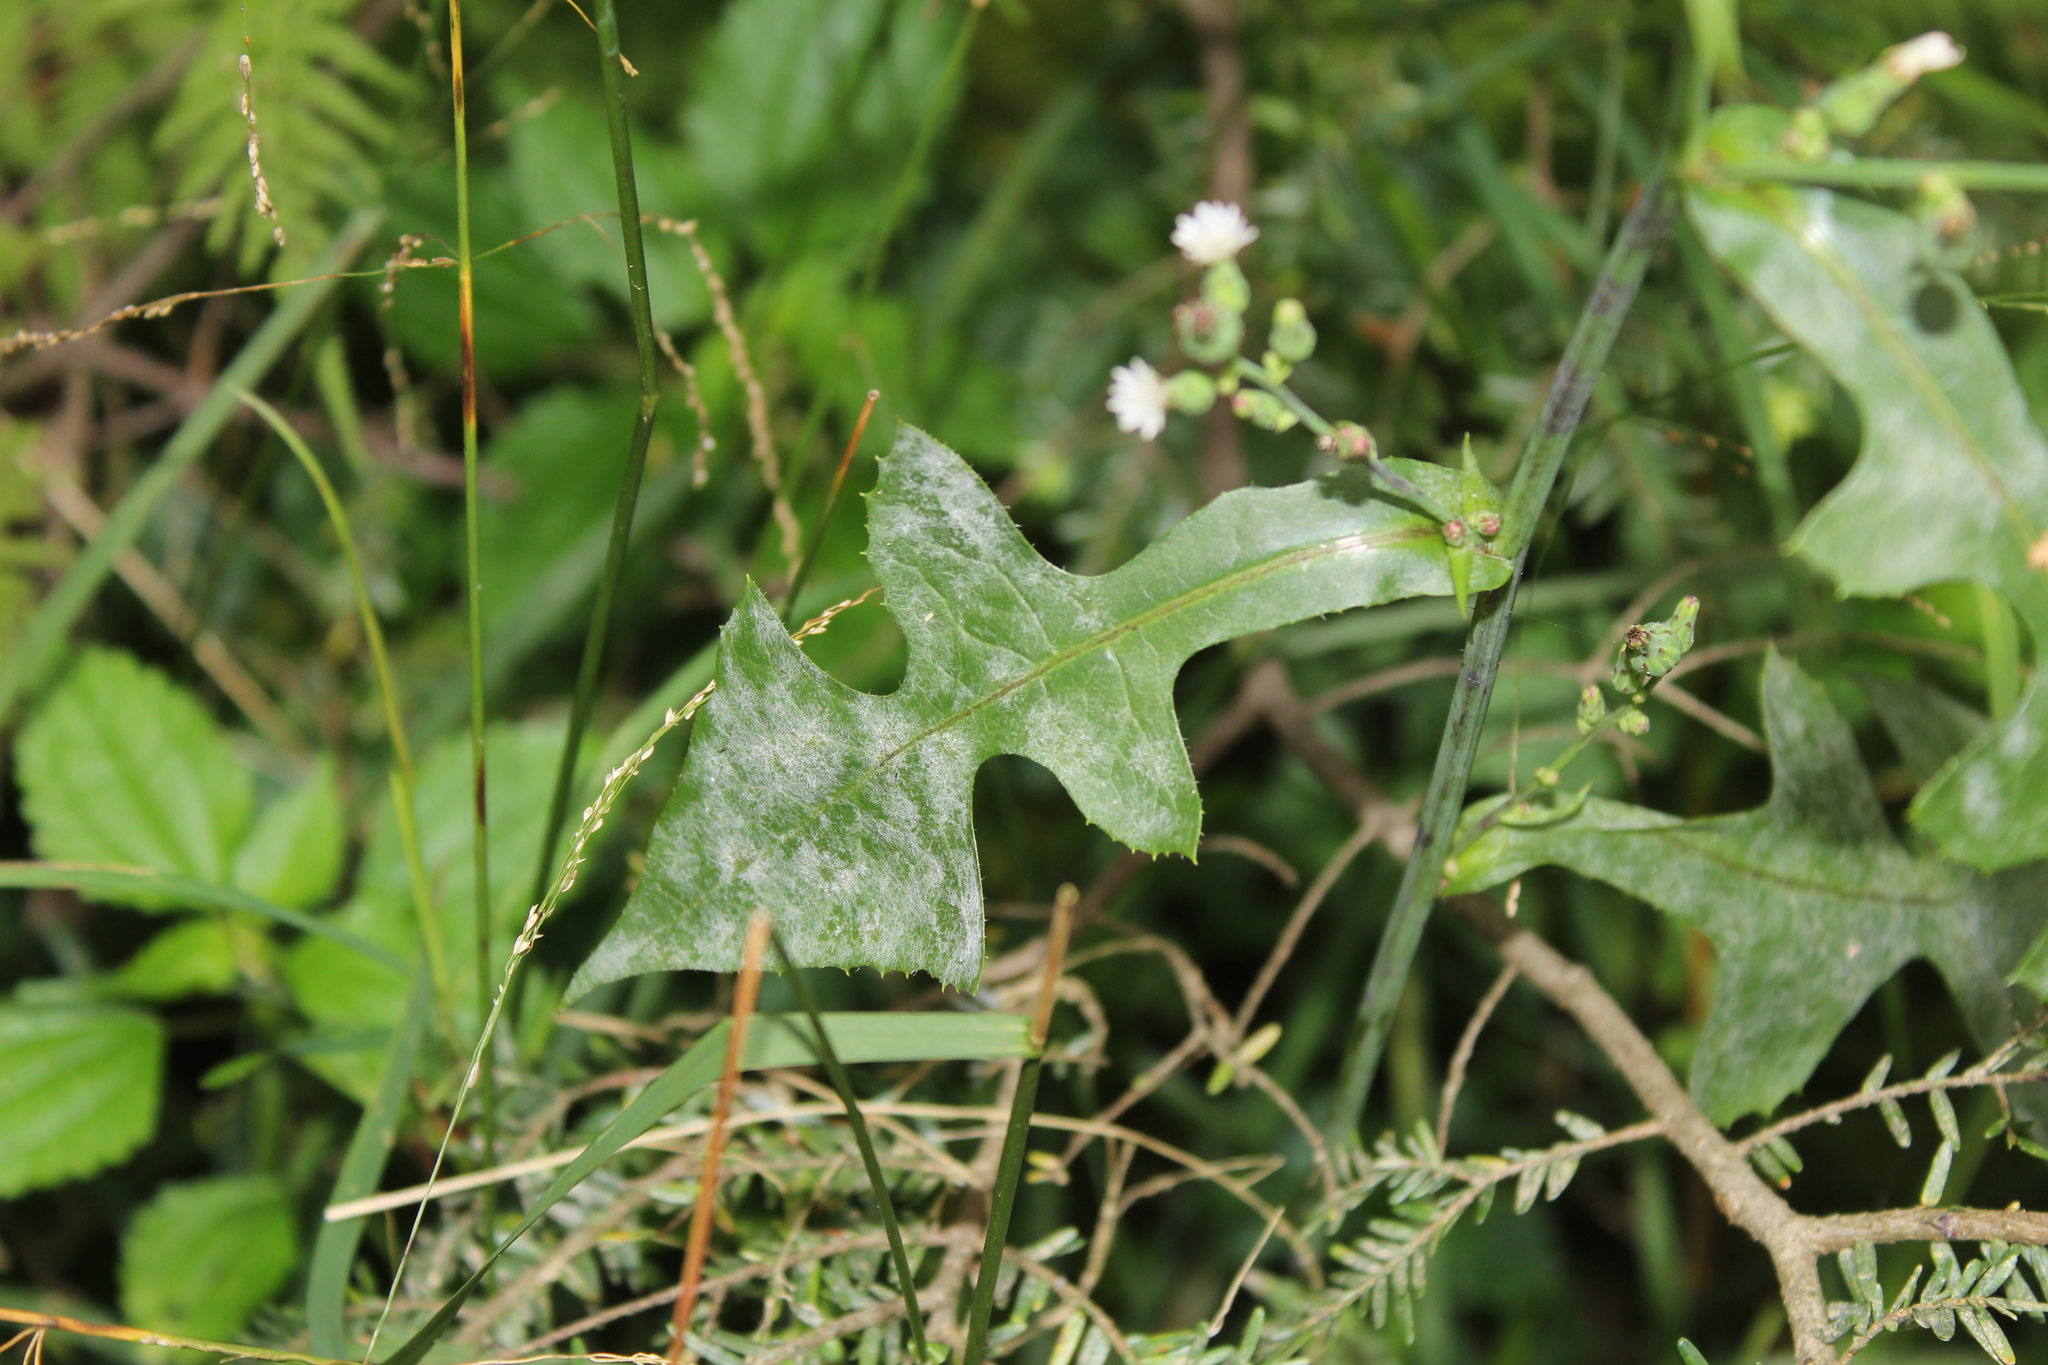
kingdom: Fungi
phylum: Ascomycota
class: Leotiomycetes
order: Helotiales
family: Erysiphaceae
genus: Golovinomyces
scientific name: Golovinomyces bolayi
